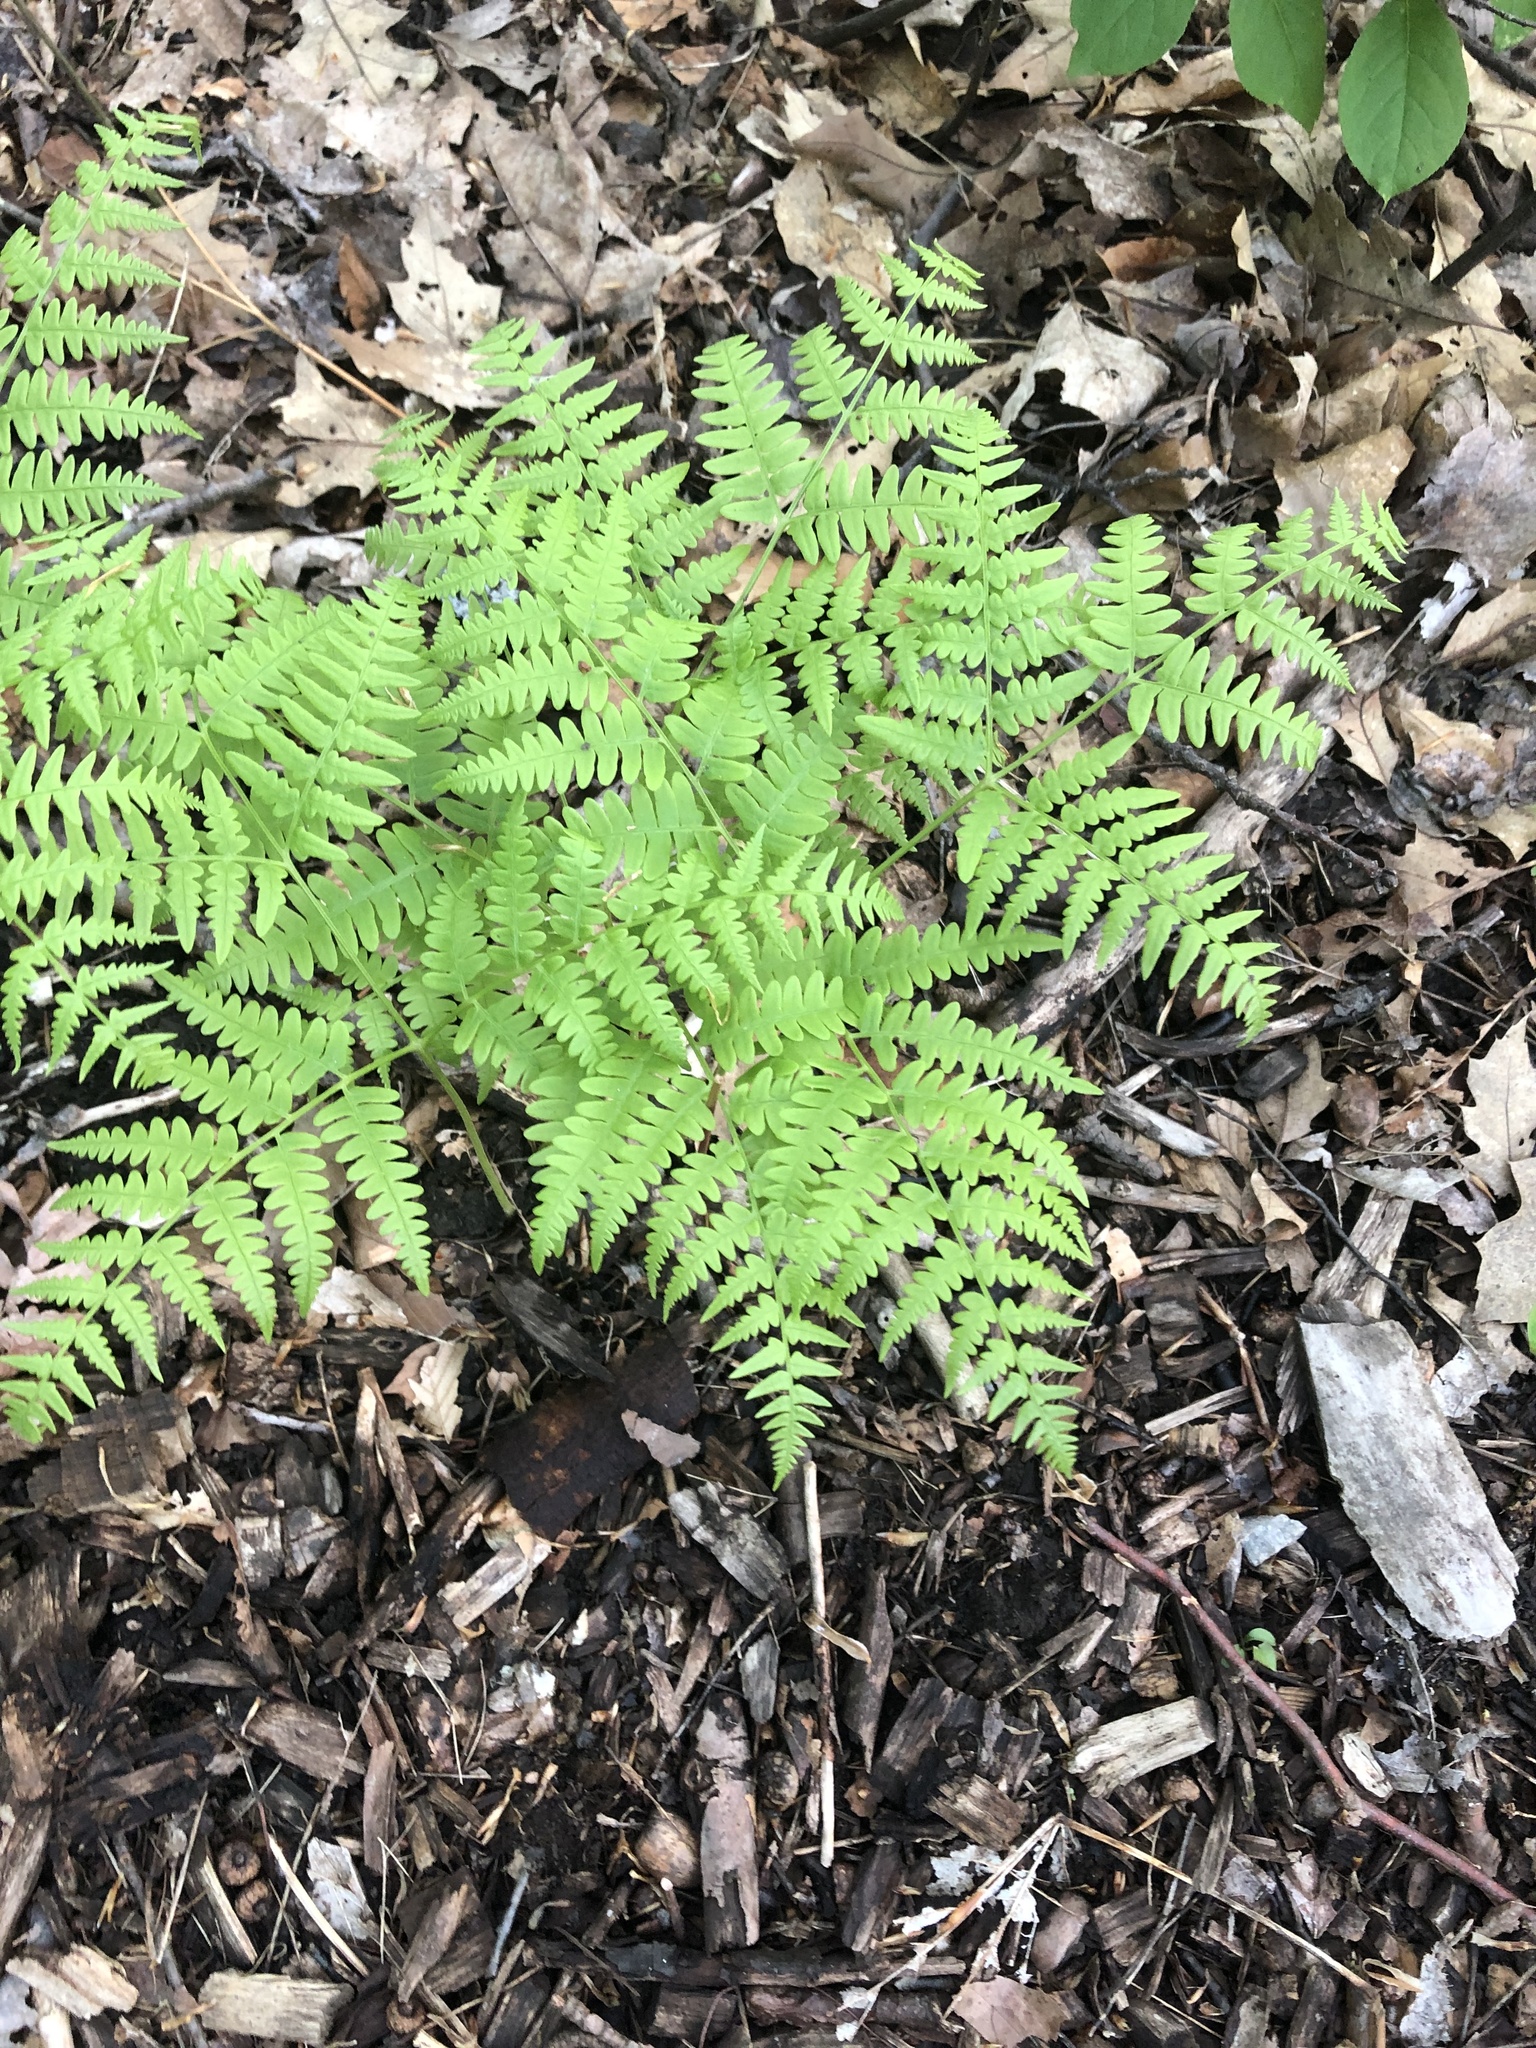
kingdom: Plantae
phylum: Tracheophyta
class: Polypodiopsida
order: Polypodiales
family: Dennstaedtiaceae
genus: Pteridium
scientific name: Pteridium aquilinum
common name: Bracken
